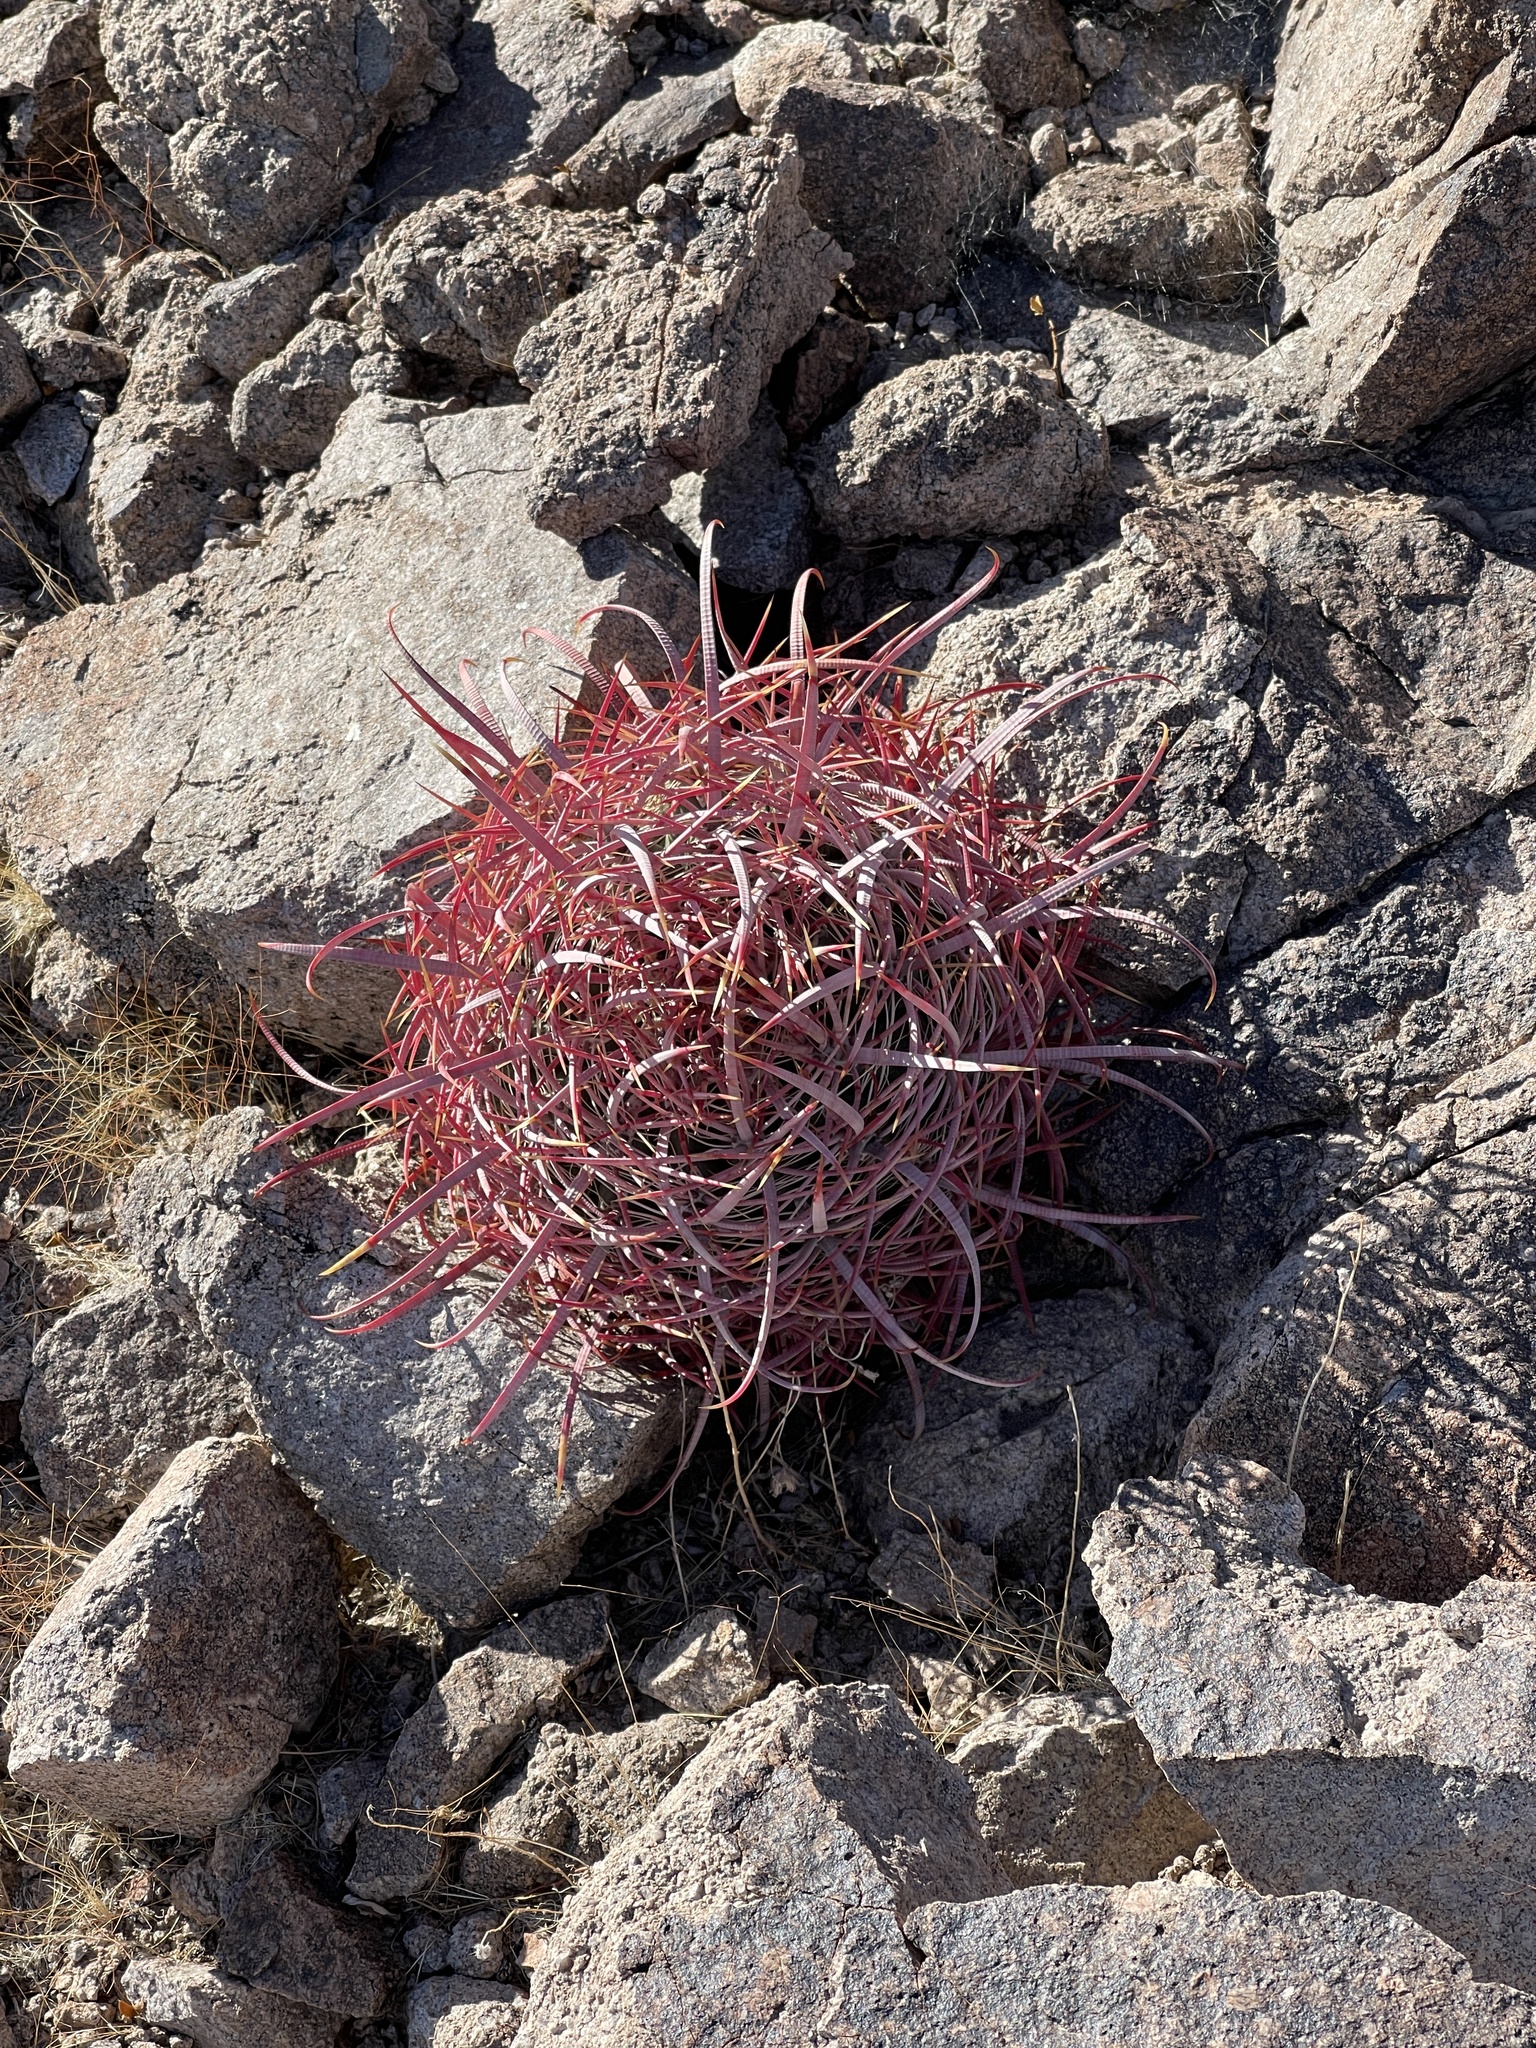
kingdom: Plantae
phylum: Tracheophyta
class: Magnoliopsida
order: Caryophyllales
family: Cactaceae
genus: Ferocactus
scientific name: Ferocactus cylindraceus
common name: California barrel cactus
